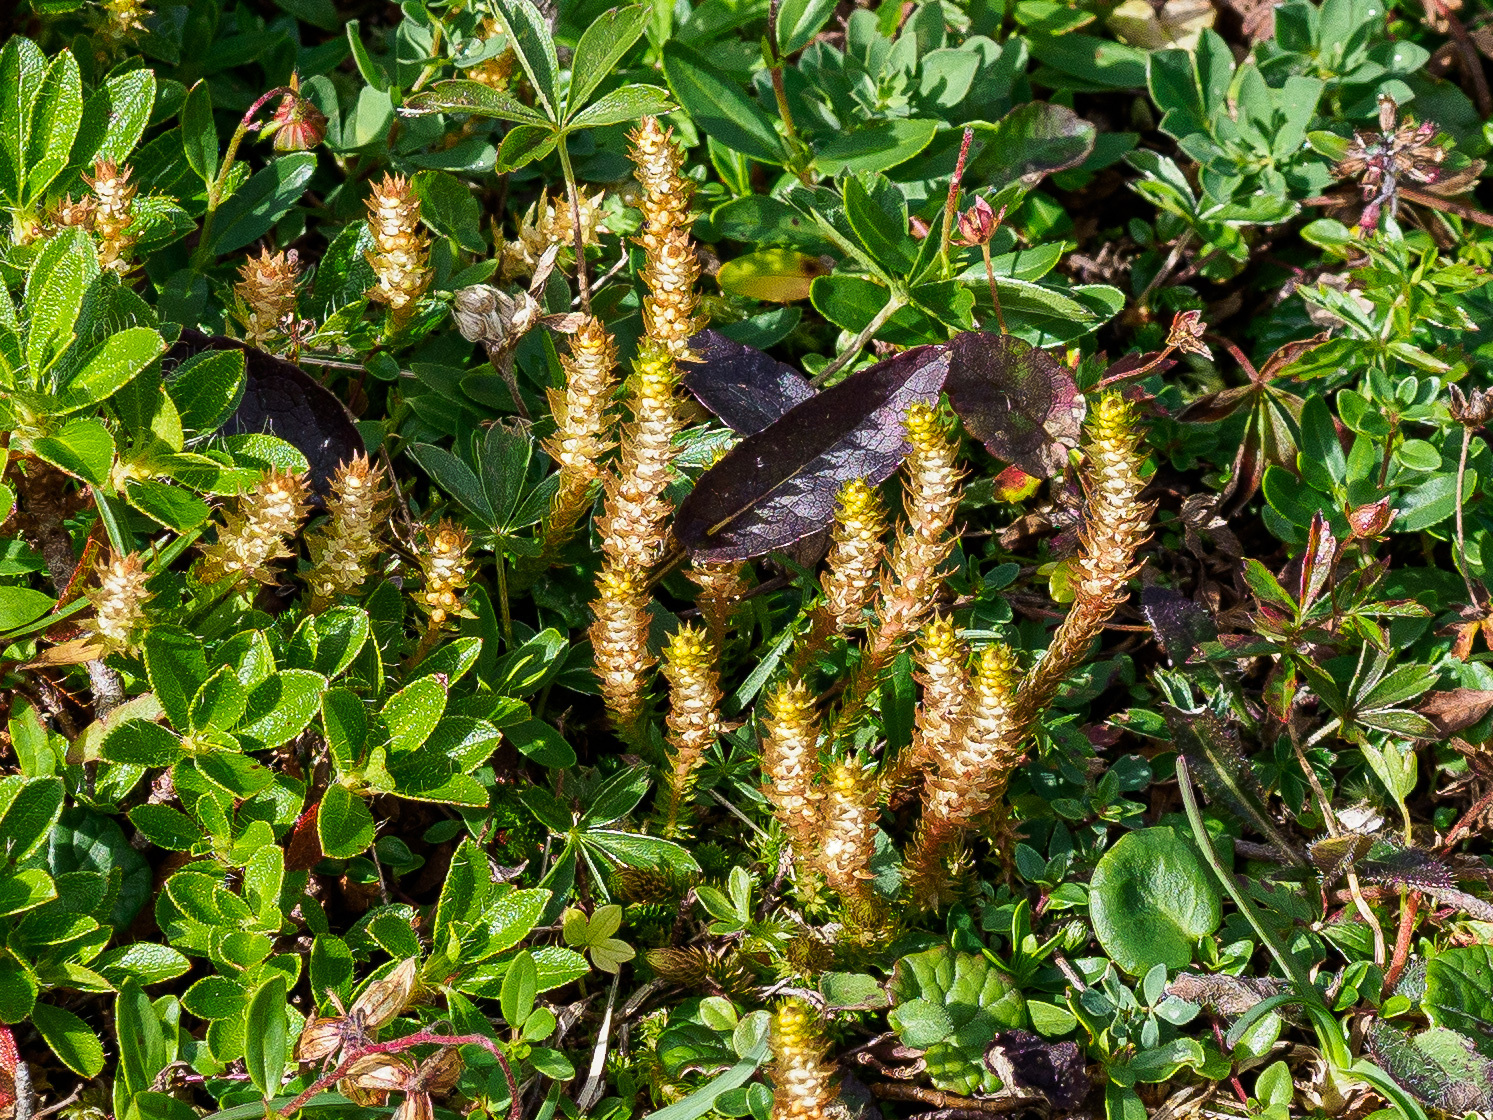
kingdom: Plantae
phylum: Tracheophyta
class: Lycopodiopsida
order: Selaginellales
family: Selaginellaceae
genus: Selaginella
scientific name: Selaginella selaginoides
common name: Prickly mountain-moss
